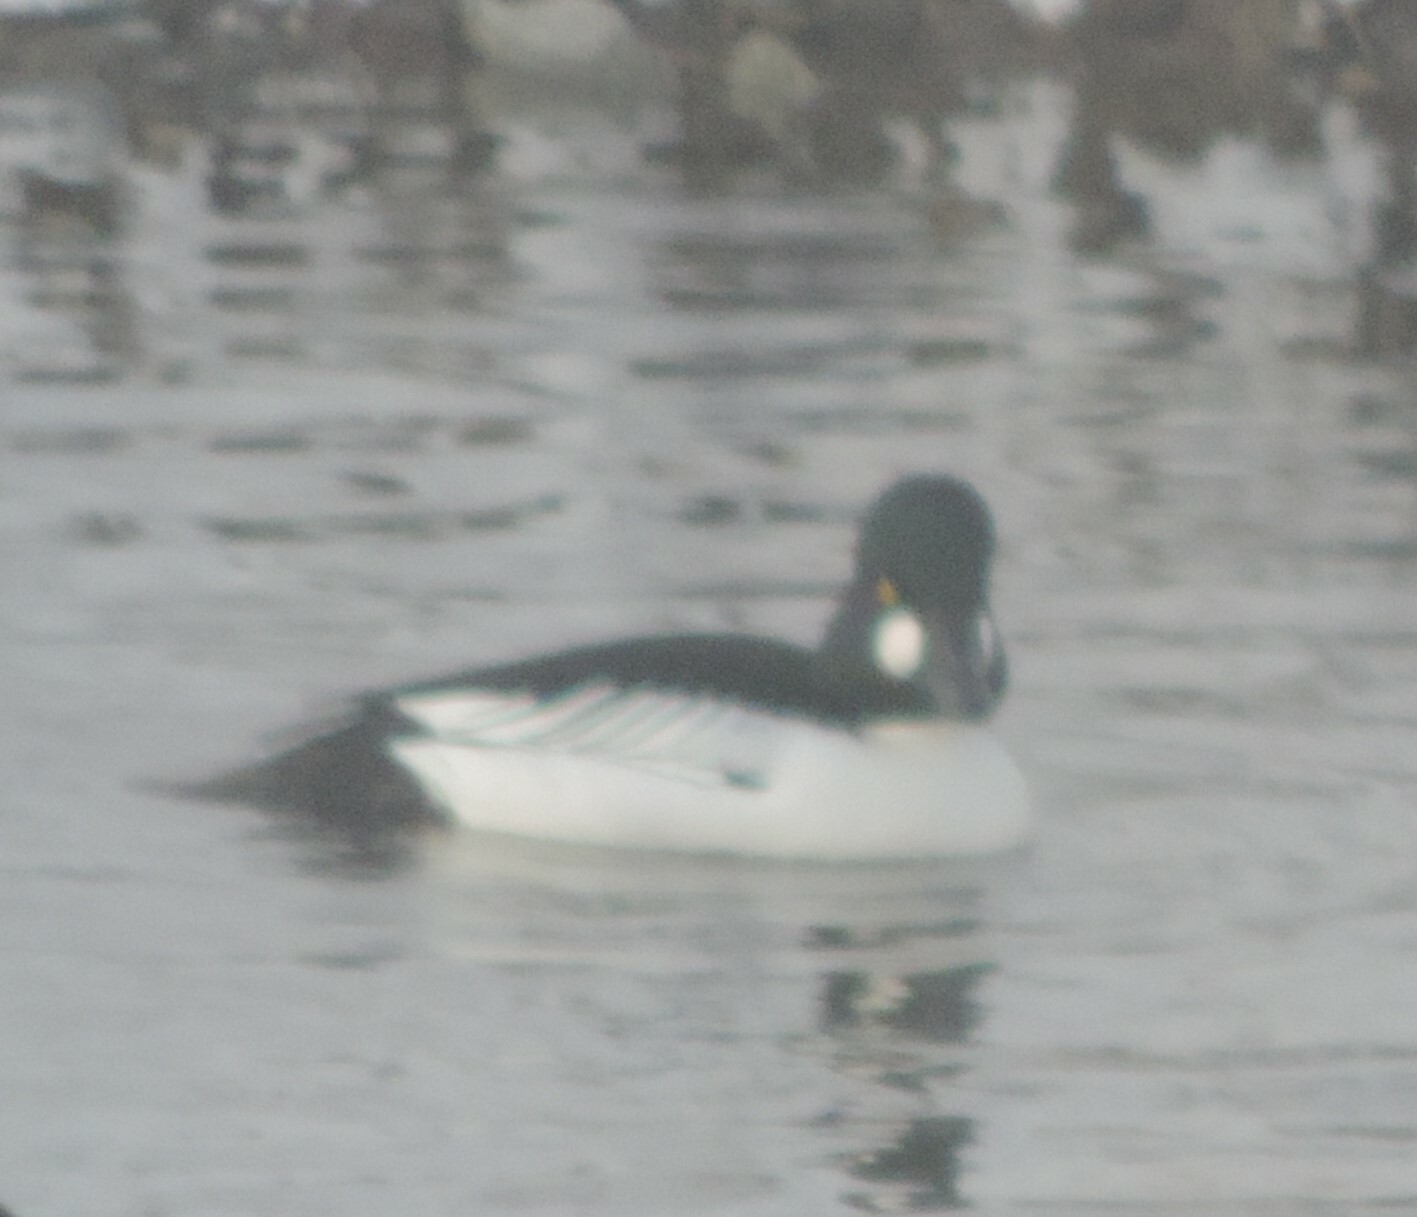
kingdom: Animalia
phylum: Chordata
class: Aves
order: Anseriformes
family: Anatidae
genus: Bucephala
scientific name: Bucephala clangula
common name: Common goldeneye
